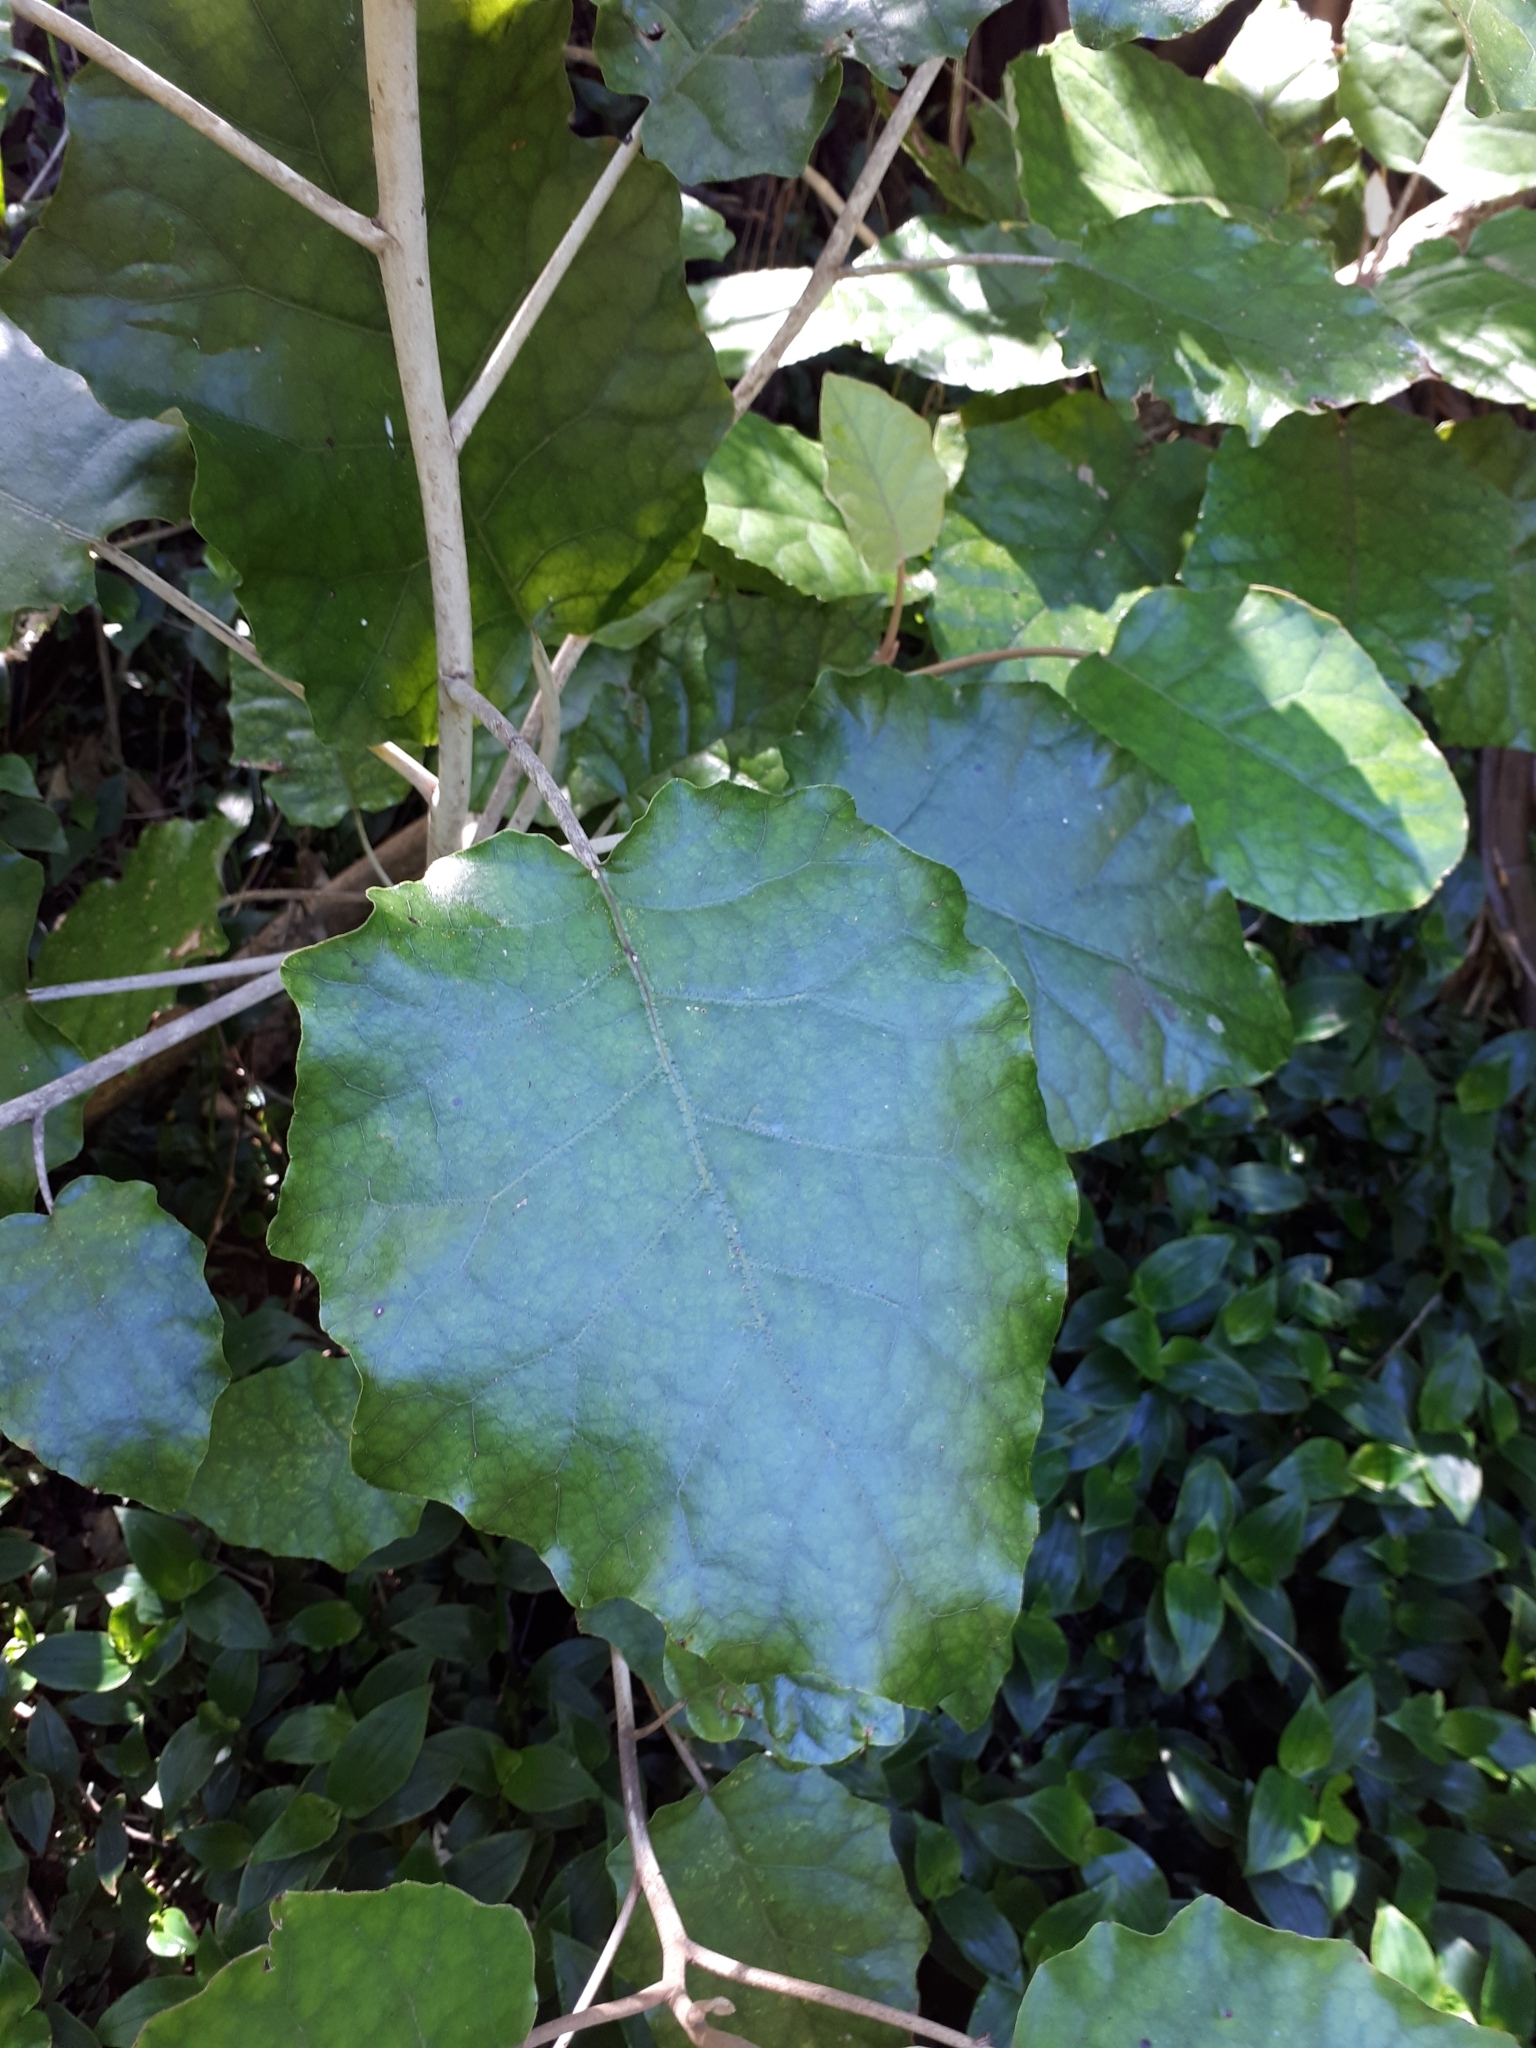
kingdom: Plantae
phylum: Tracheophyta
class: Magnoliopsida
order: Asterales
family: Asteraceae
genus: Brachyglottis
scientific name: Brachyglottis repanda
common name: Hedge ragwort
